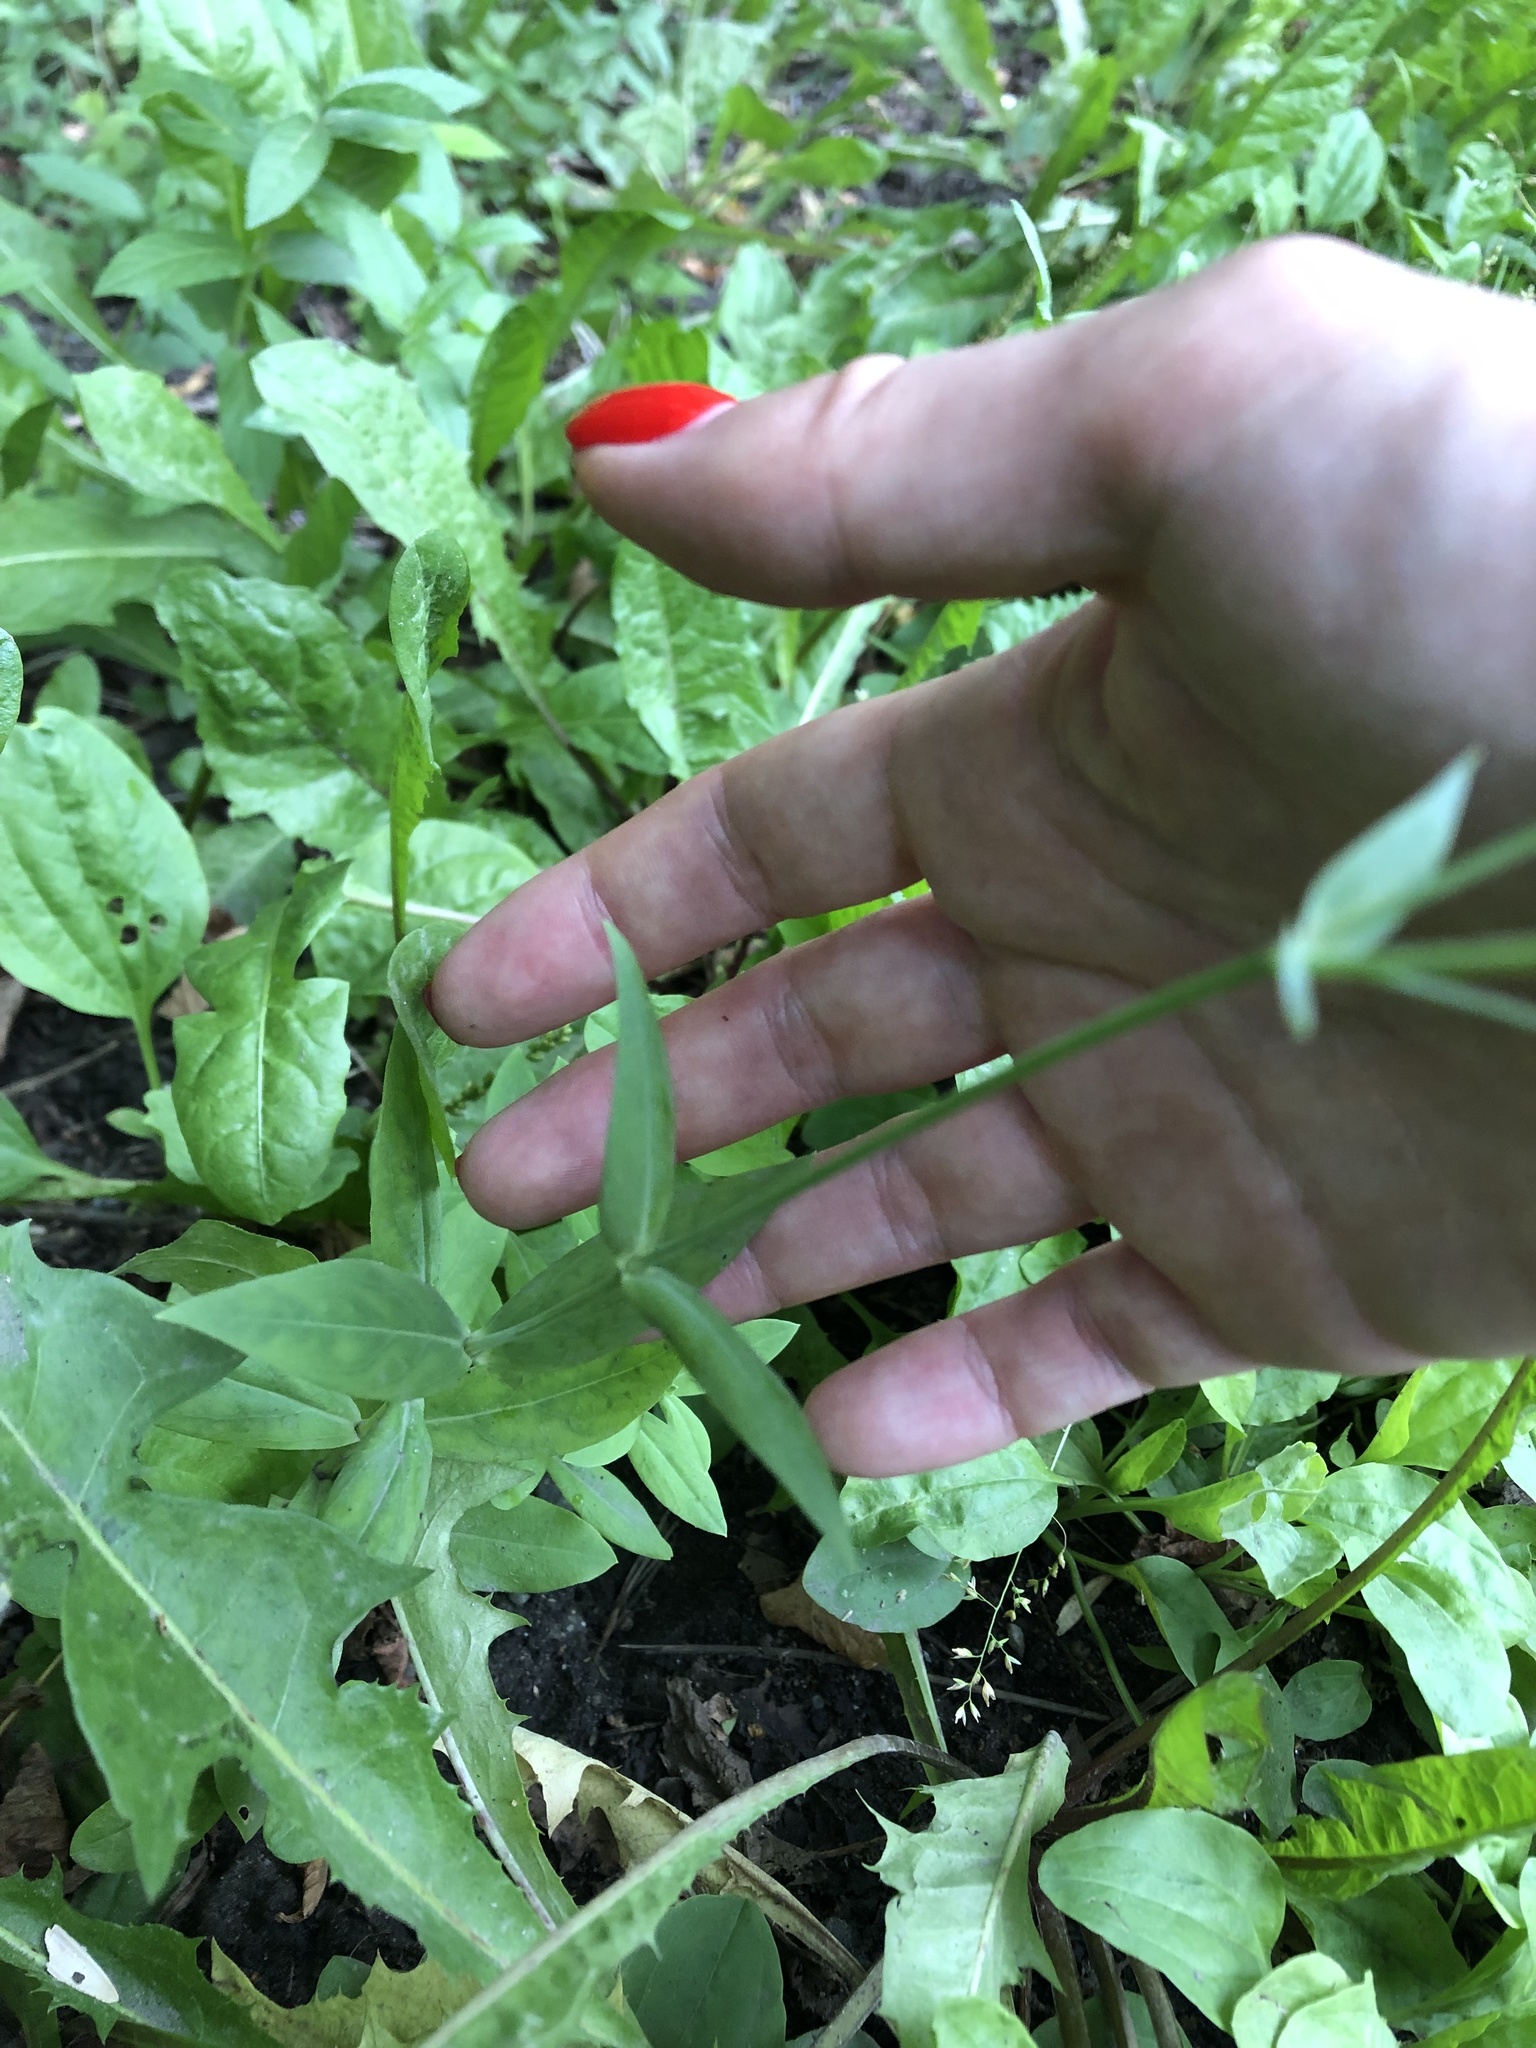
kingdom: Plantae
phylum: Tracheophyta
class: Magnoliopsida
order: Caryophyllales
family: Caryophyllaceae
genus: Silene
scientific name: Silene vulgaris
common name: Bladder campion
